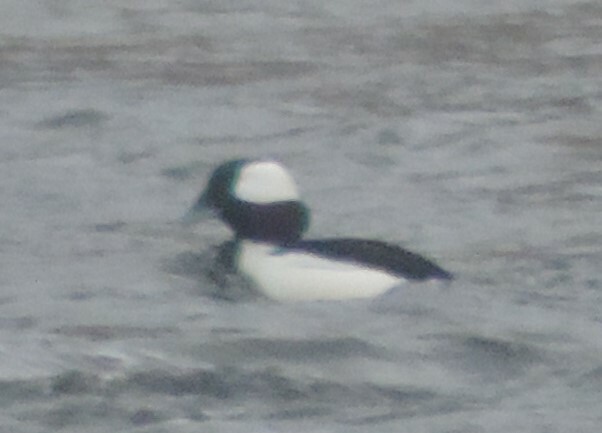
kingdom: Animalia
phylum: Chordata
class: Aves
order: Anseriformes
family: Anatidae
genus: Bucephala
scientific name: Bucephala albeola
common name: Bufflehead
